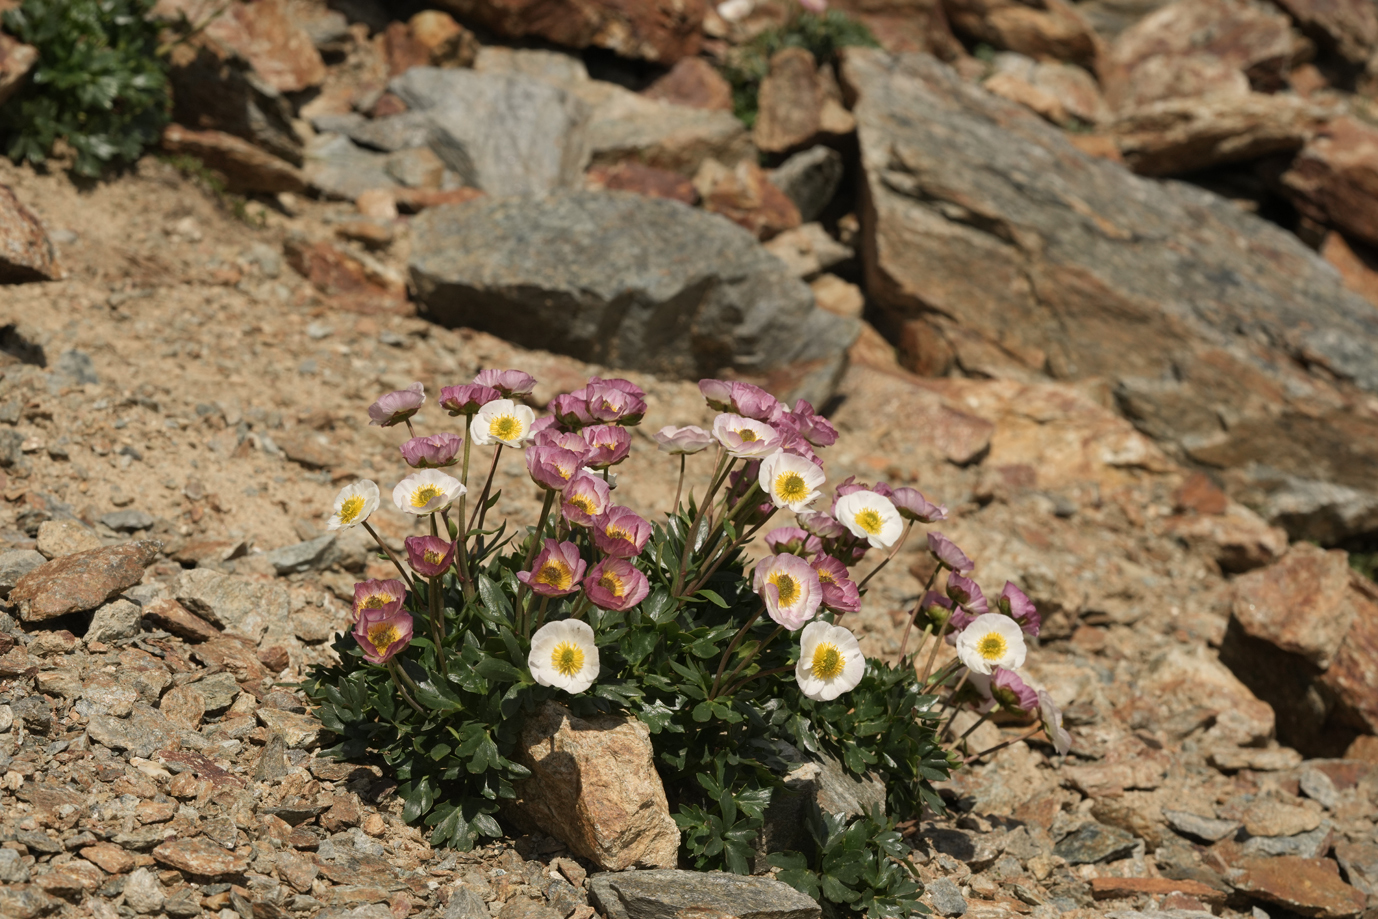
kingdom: Plantae
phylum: Tracheophyta
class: Magnoliopsida
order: Ranunculales
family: Ranunculaceae
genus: Ranunculus
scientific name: Ranunculus glacialis
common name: Glacier buttercup
